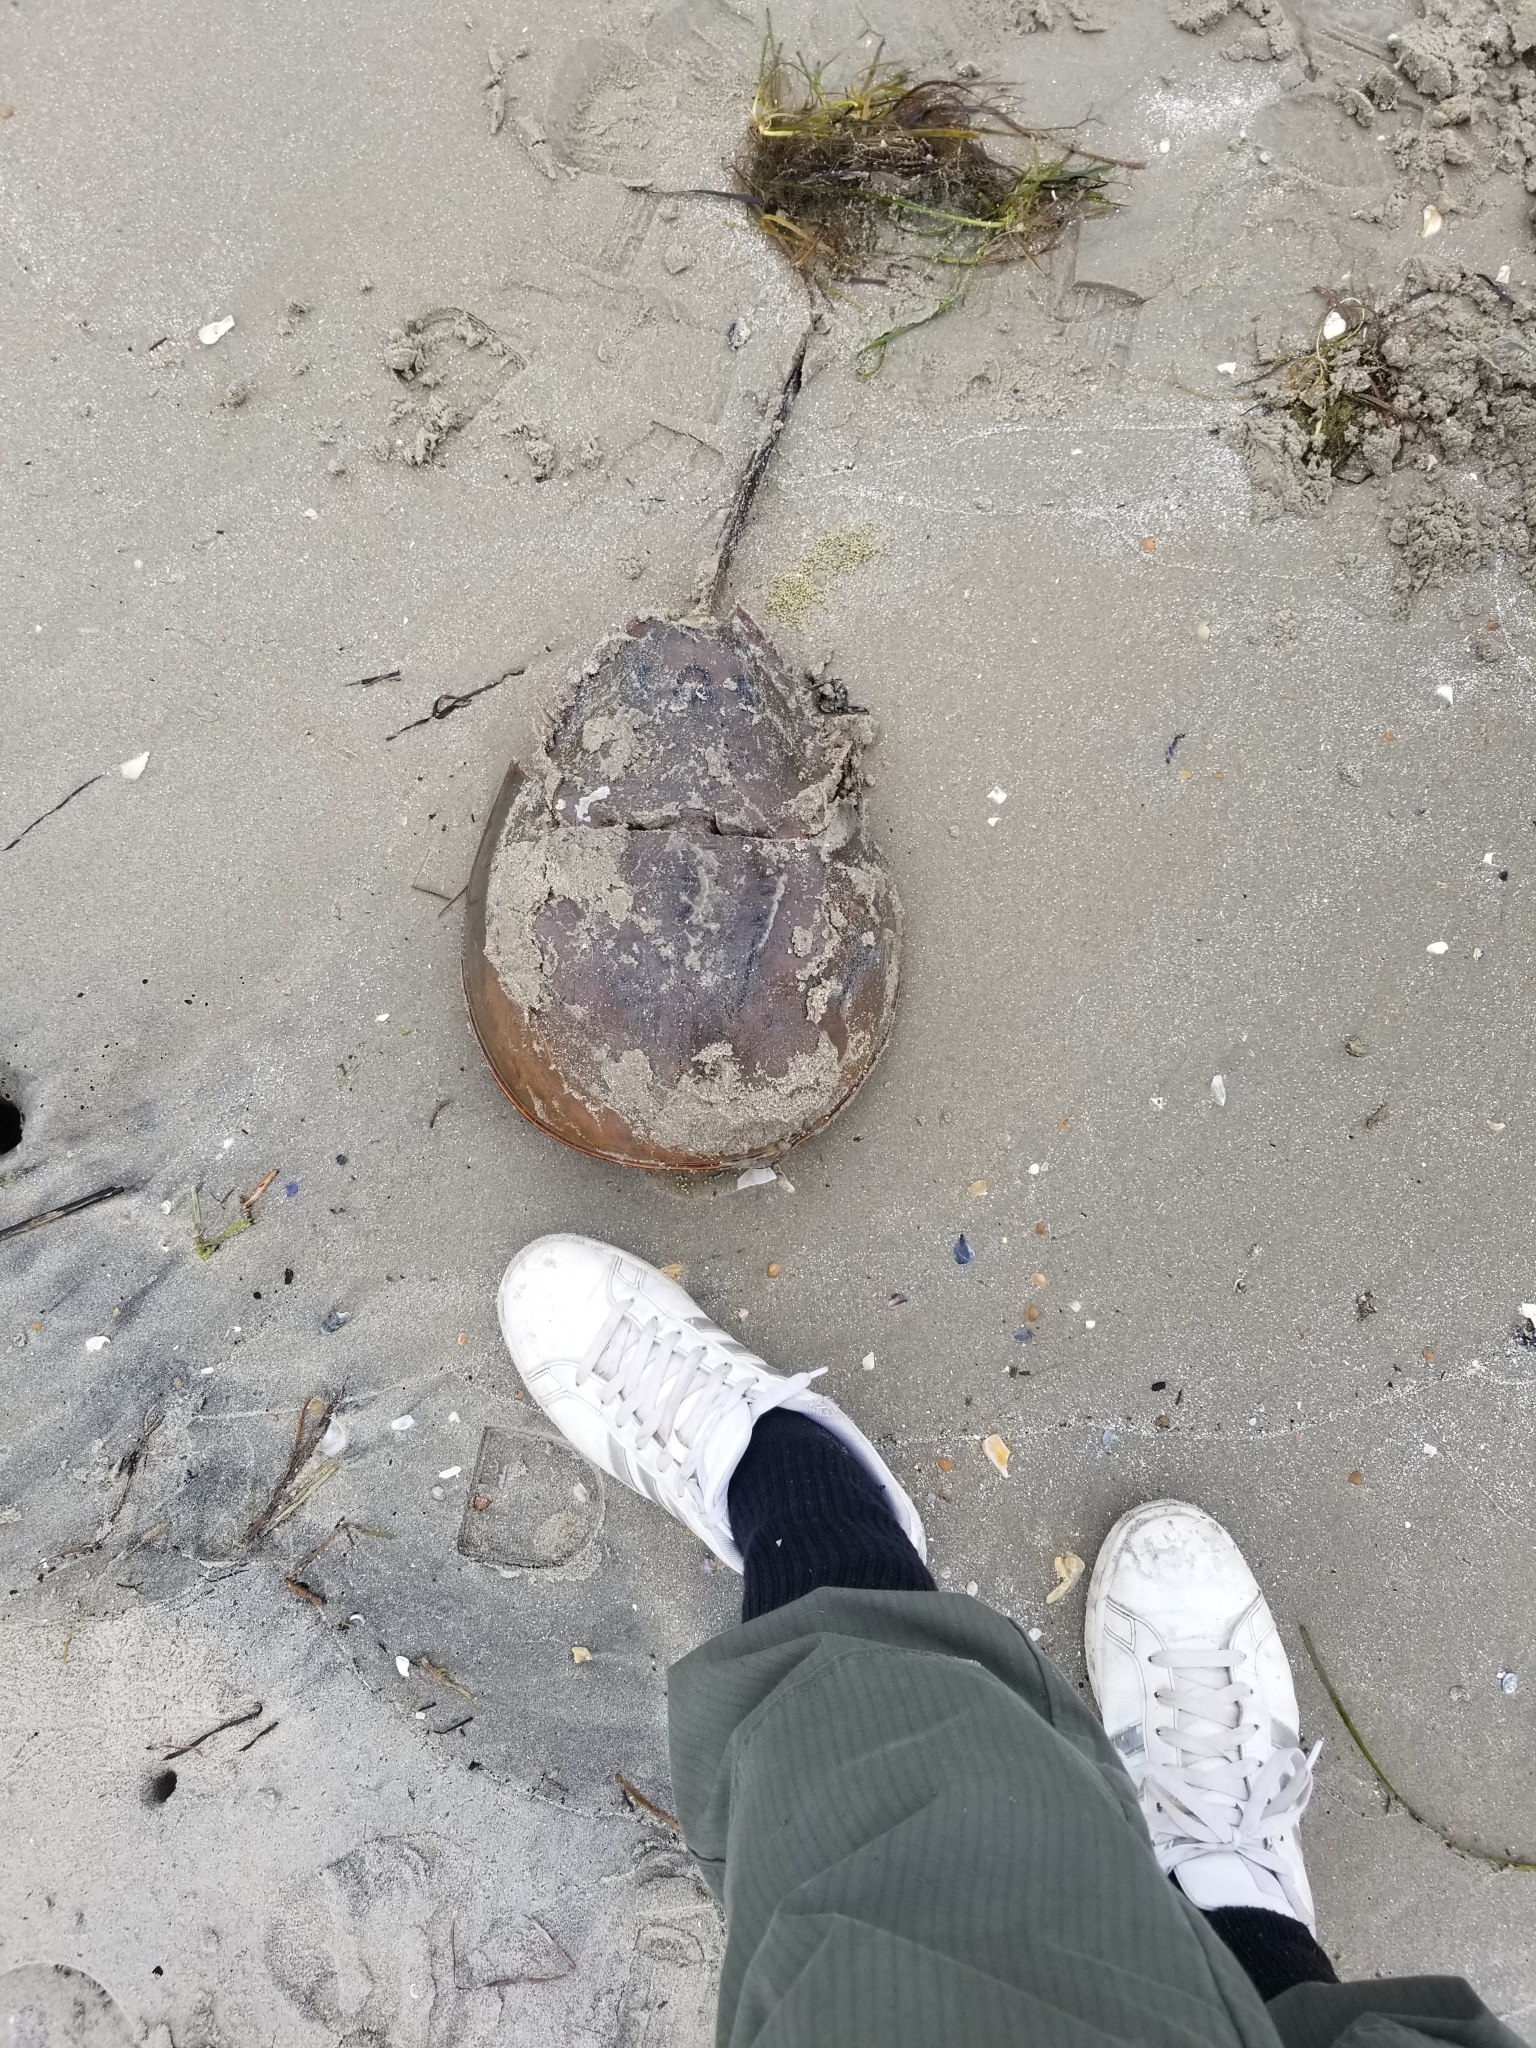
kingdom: Animalia
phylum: Arthropoda
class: Merostomata
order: Xiphosurida
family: Limulidae
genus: Limulus
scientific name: Limulus polyphemus
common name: Horseshoe crab
